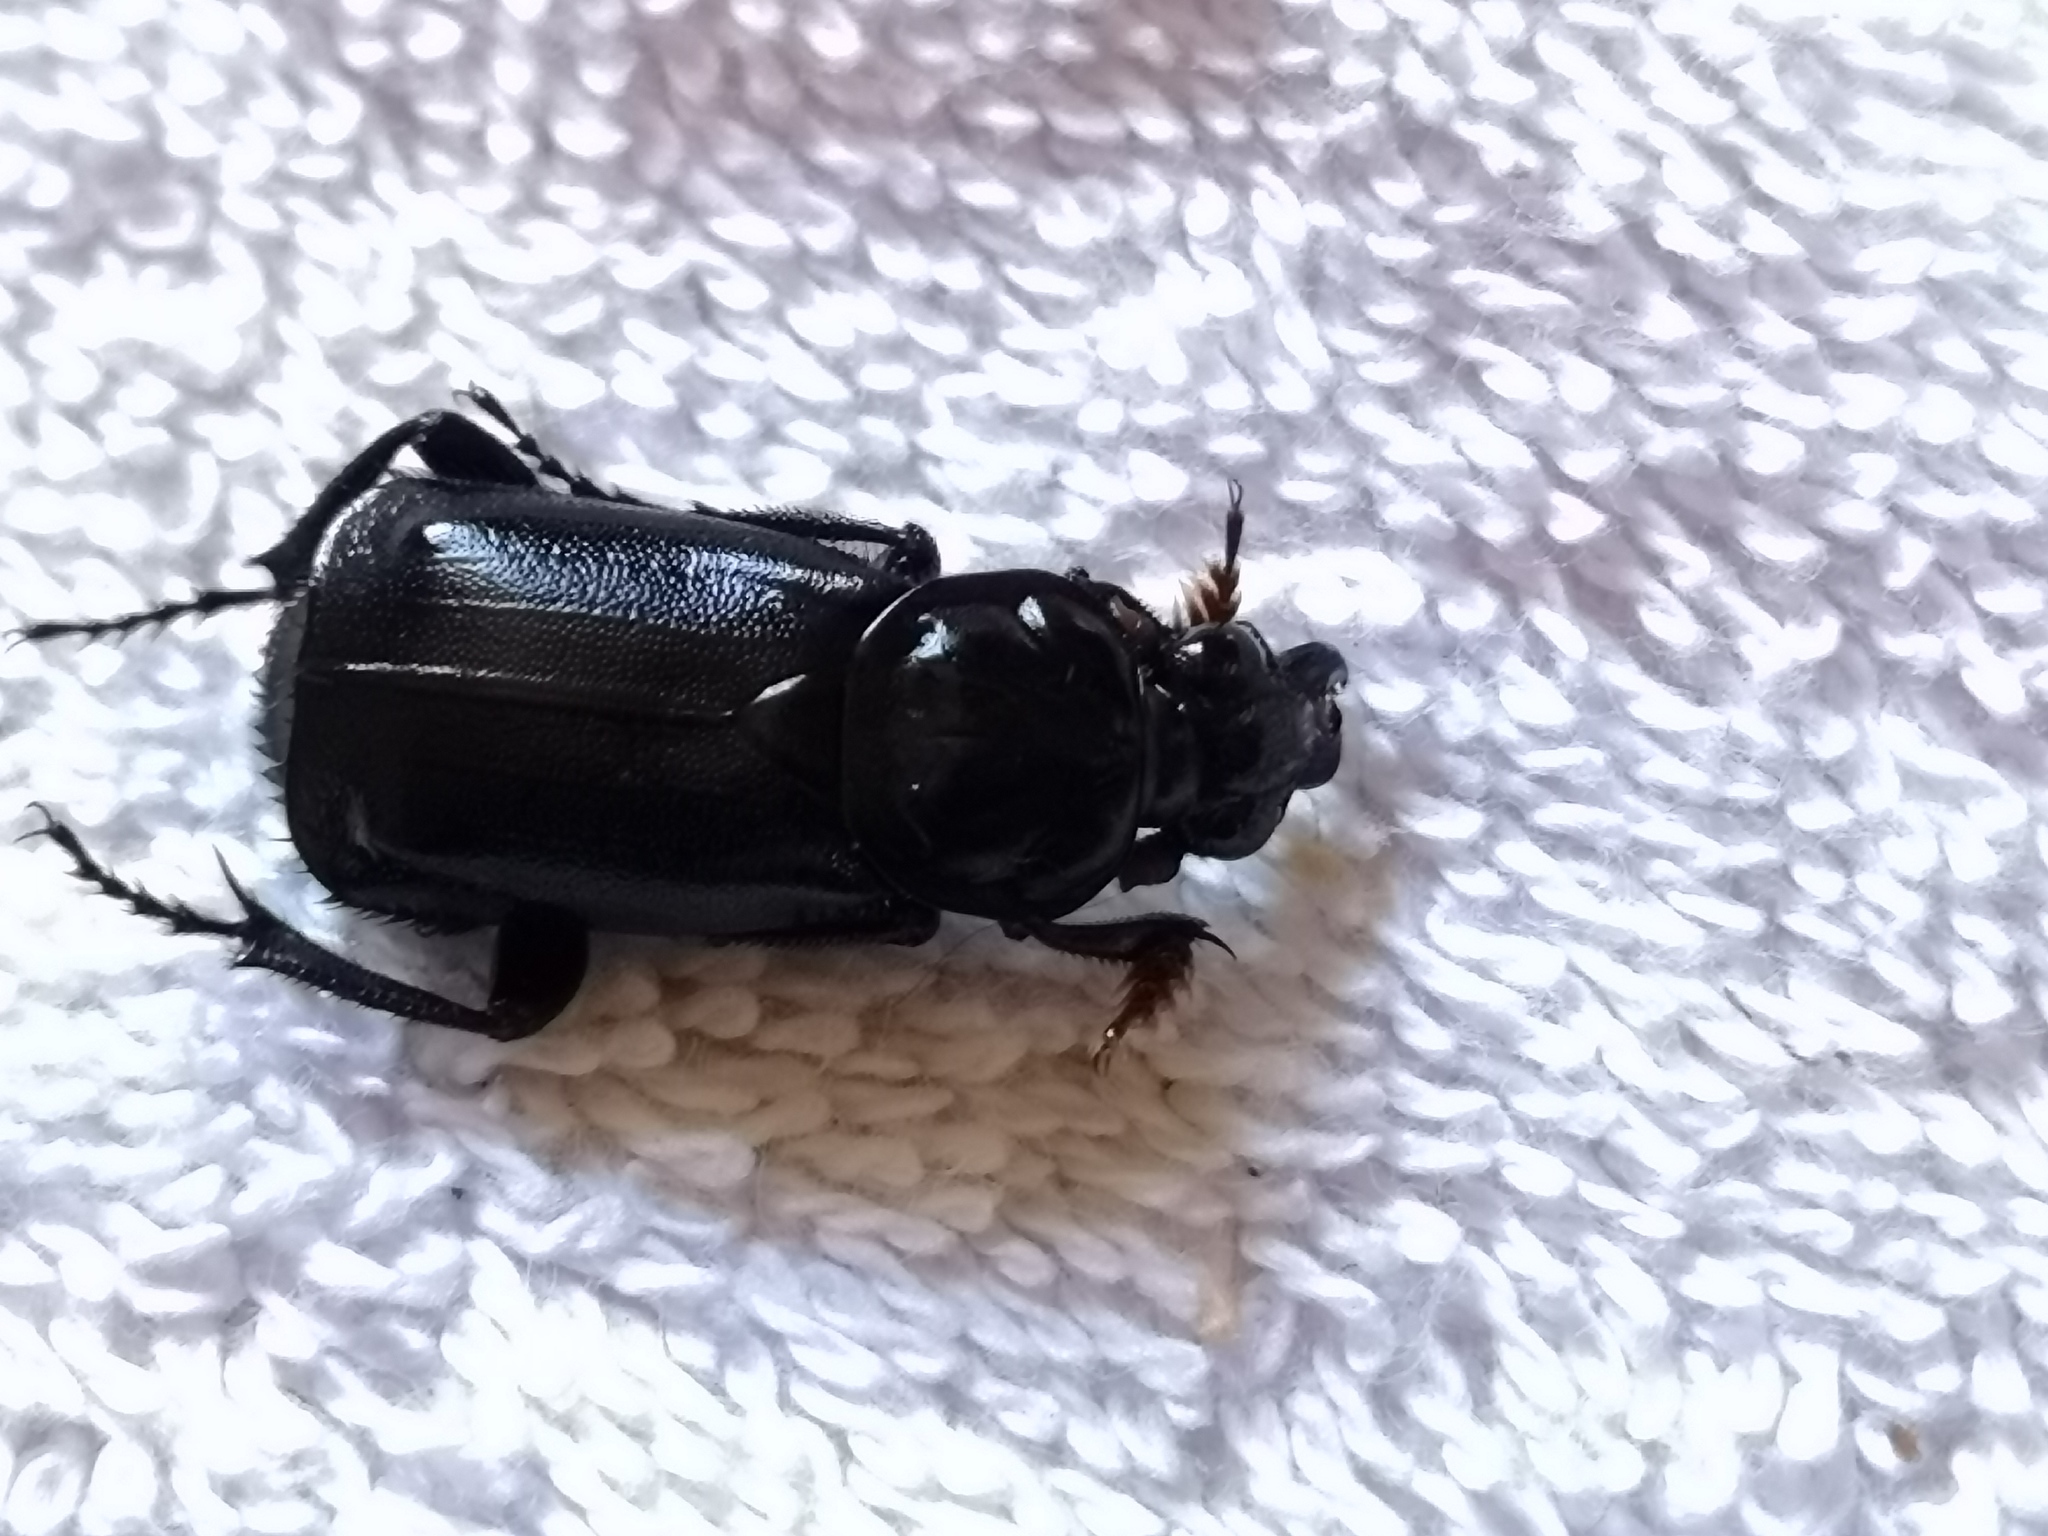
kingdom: Animalia
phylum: Arthropoda
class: Insecta
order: Coleoptera
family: Staphylinidae
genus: Nicrophorus
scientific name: Nicrophorus humator
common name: Black sexton beetle
